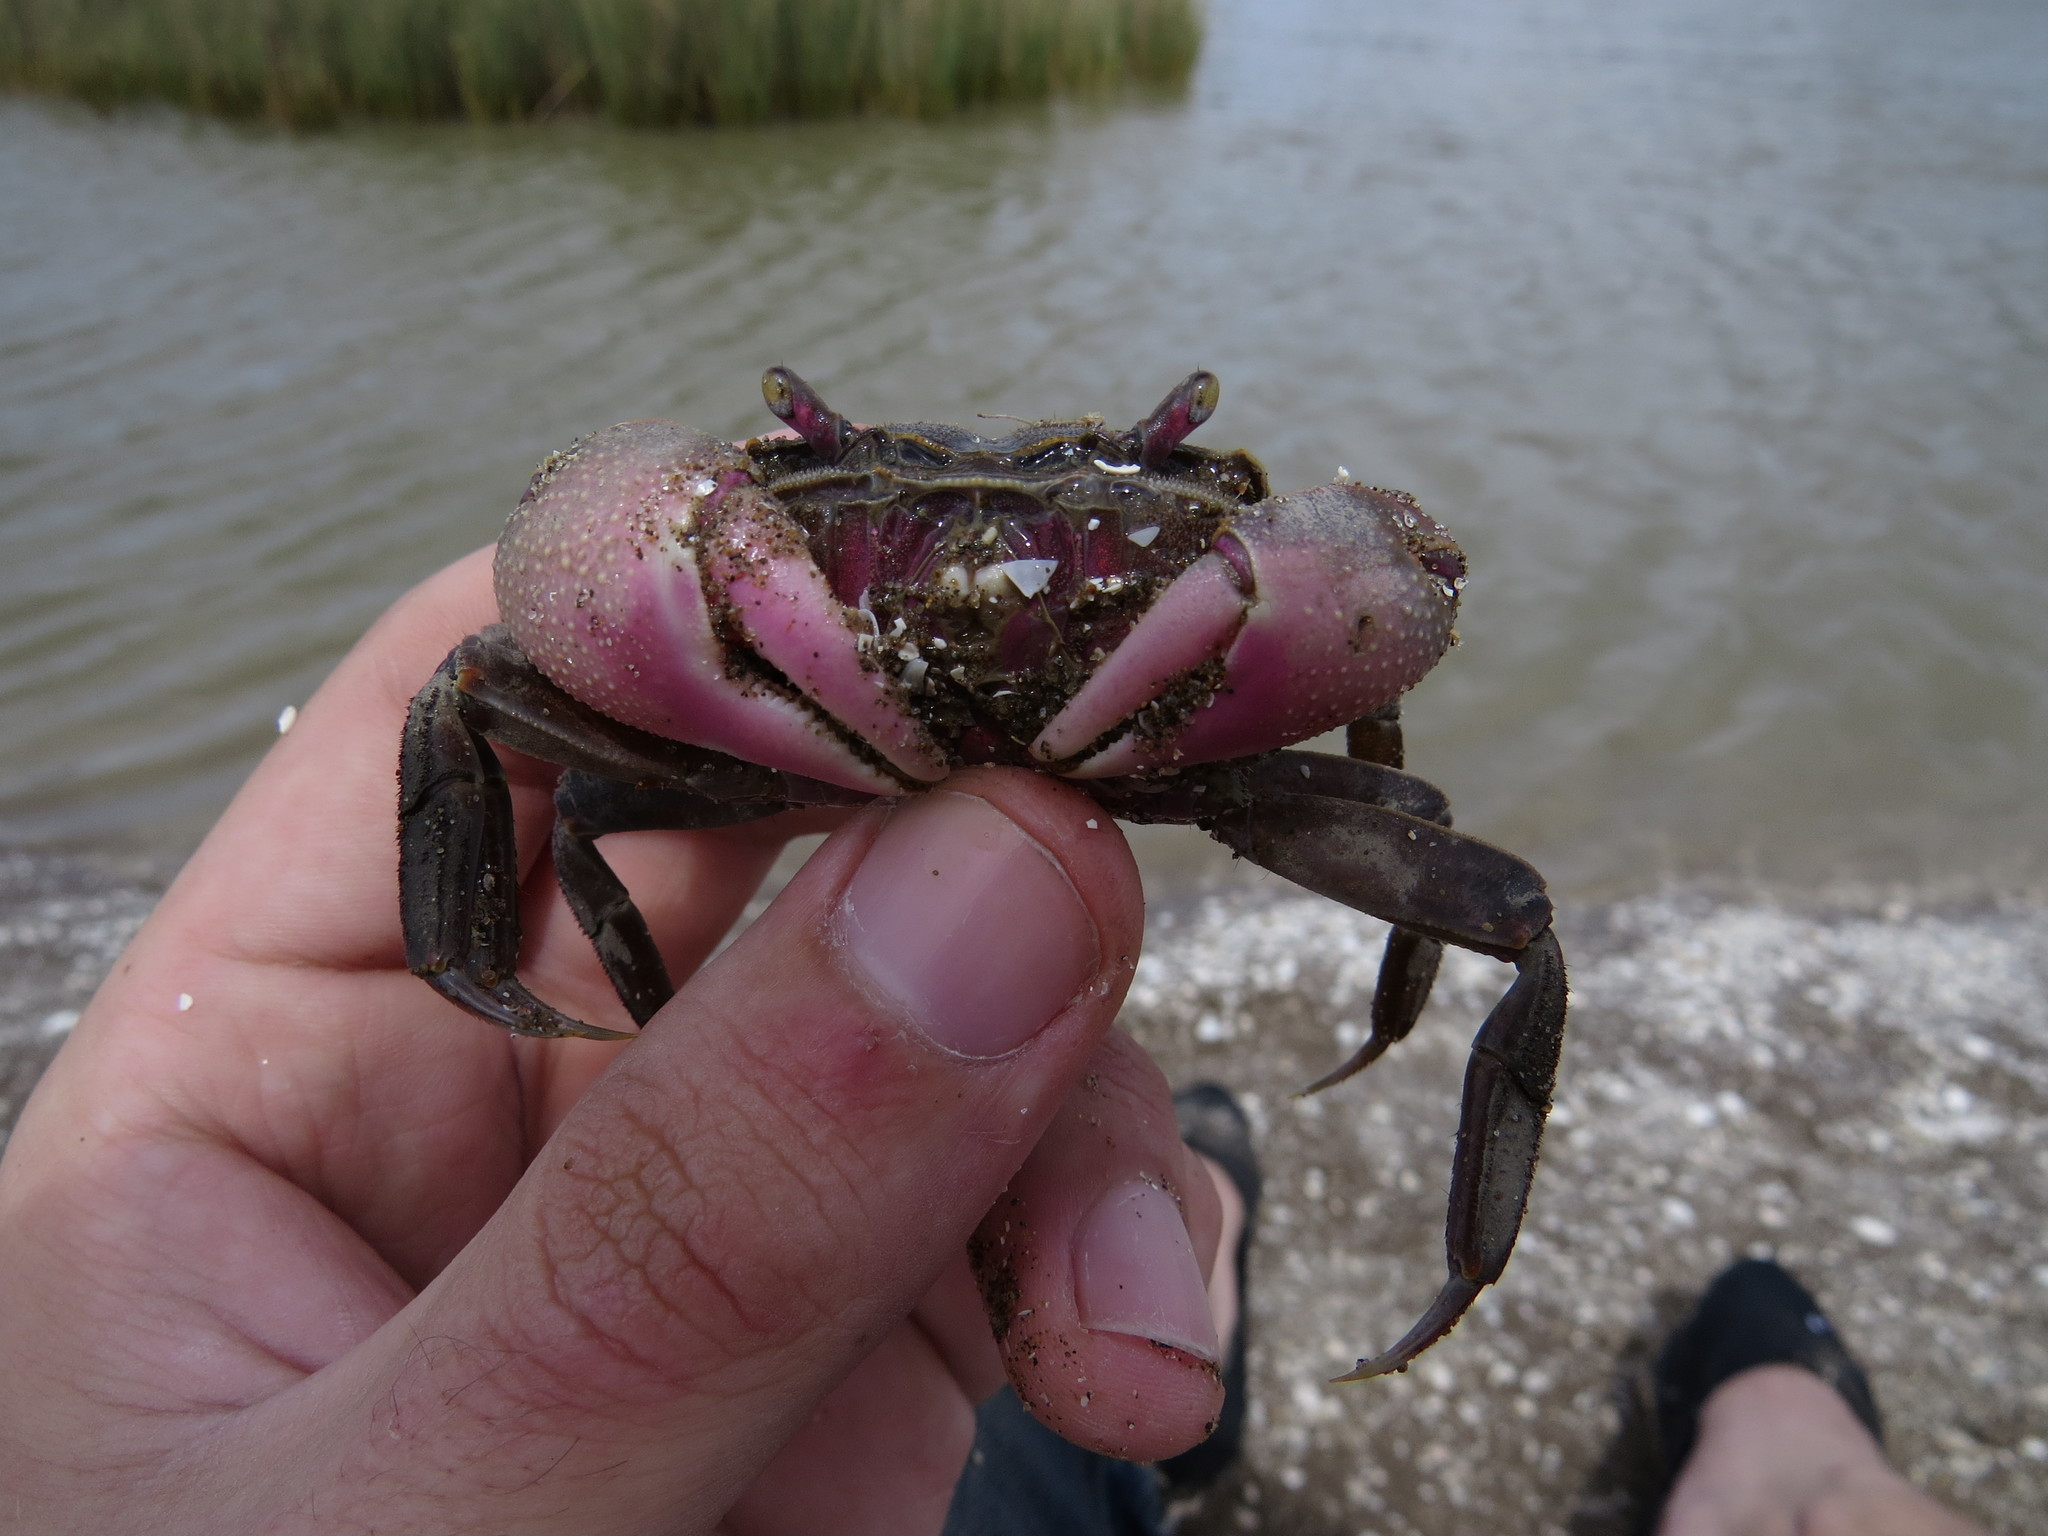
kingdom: Animalia
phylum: Arthropoda
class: Malacostraca
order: Decapoda
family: Varunidae
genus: Neohelice
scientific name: Neohelice granulata
